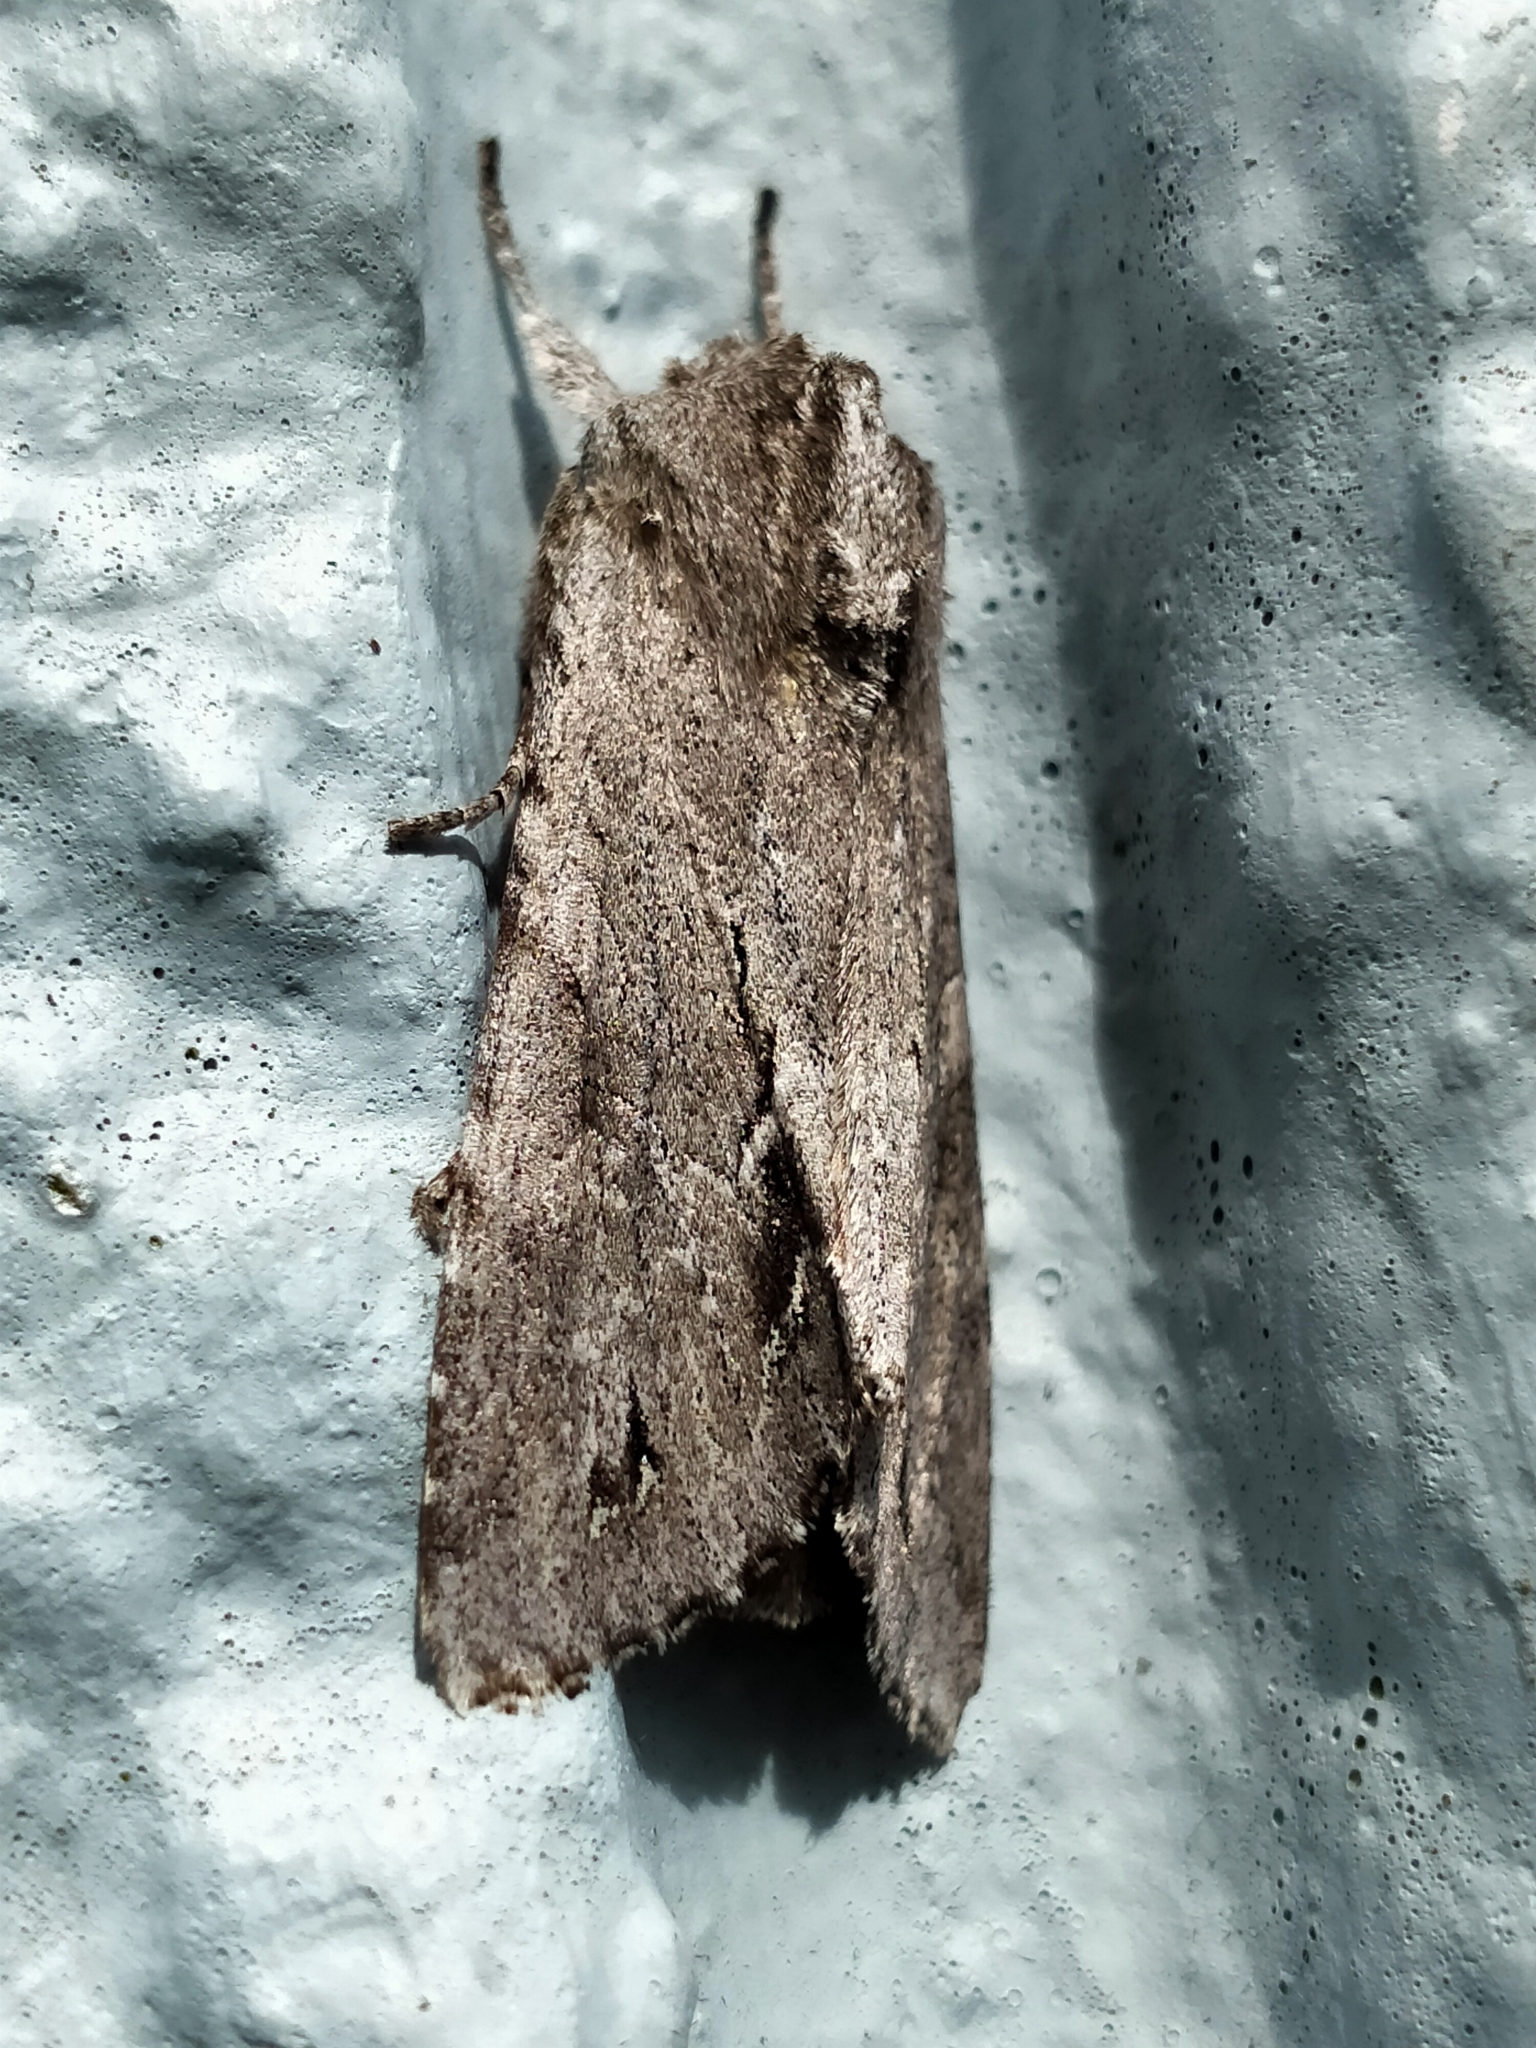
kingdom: Animalia
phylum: Arthropoda
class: Insecta
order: Lepidoptera
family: Noctuidae
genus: Ichneutica
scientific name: Ichneutica
